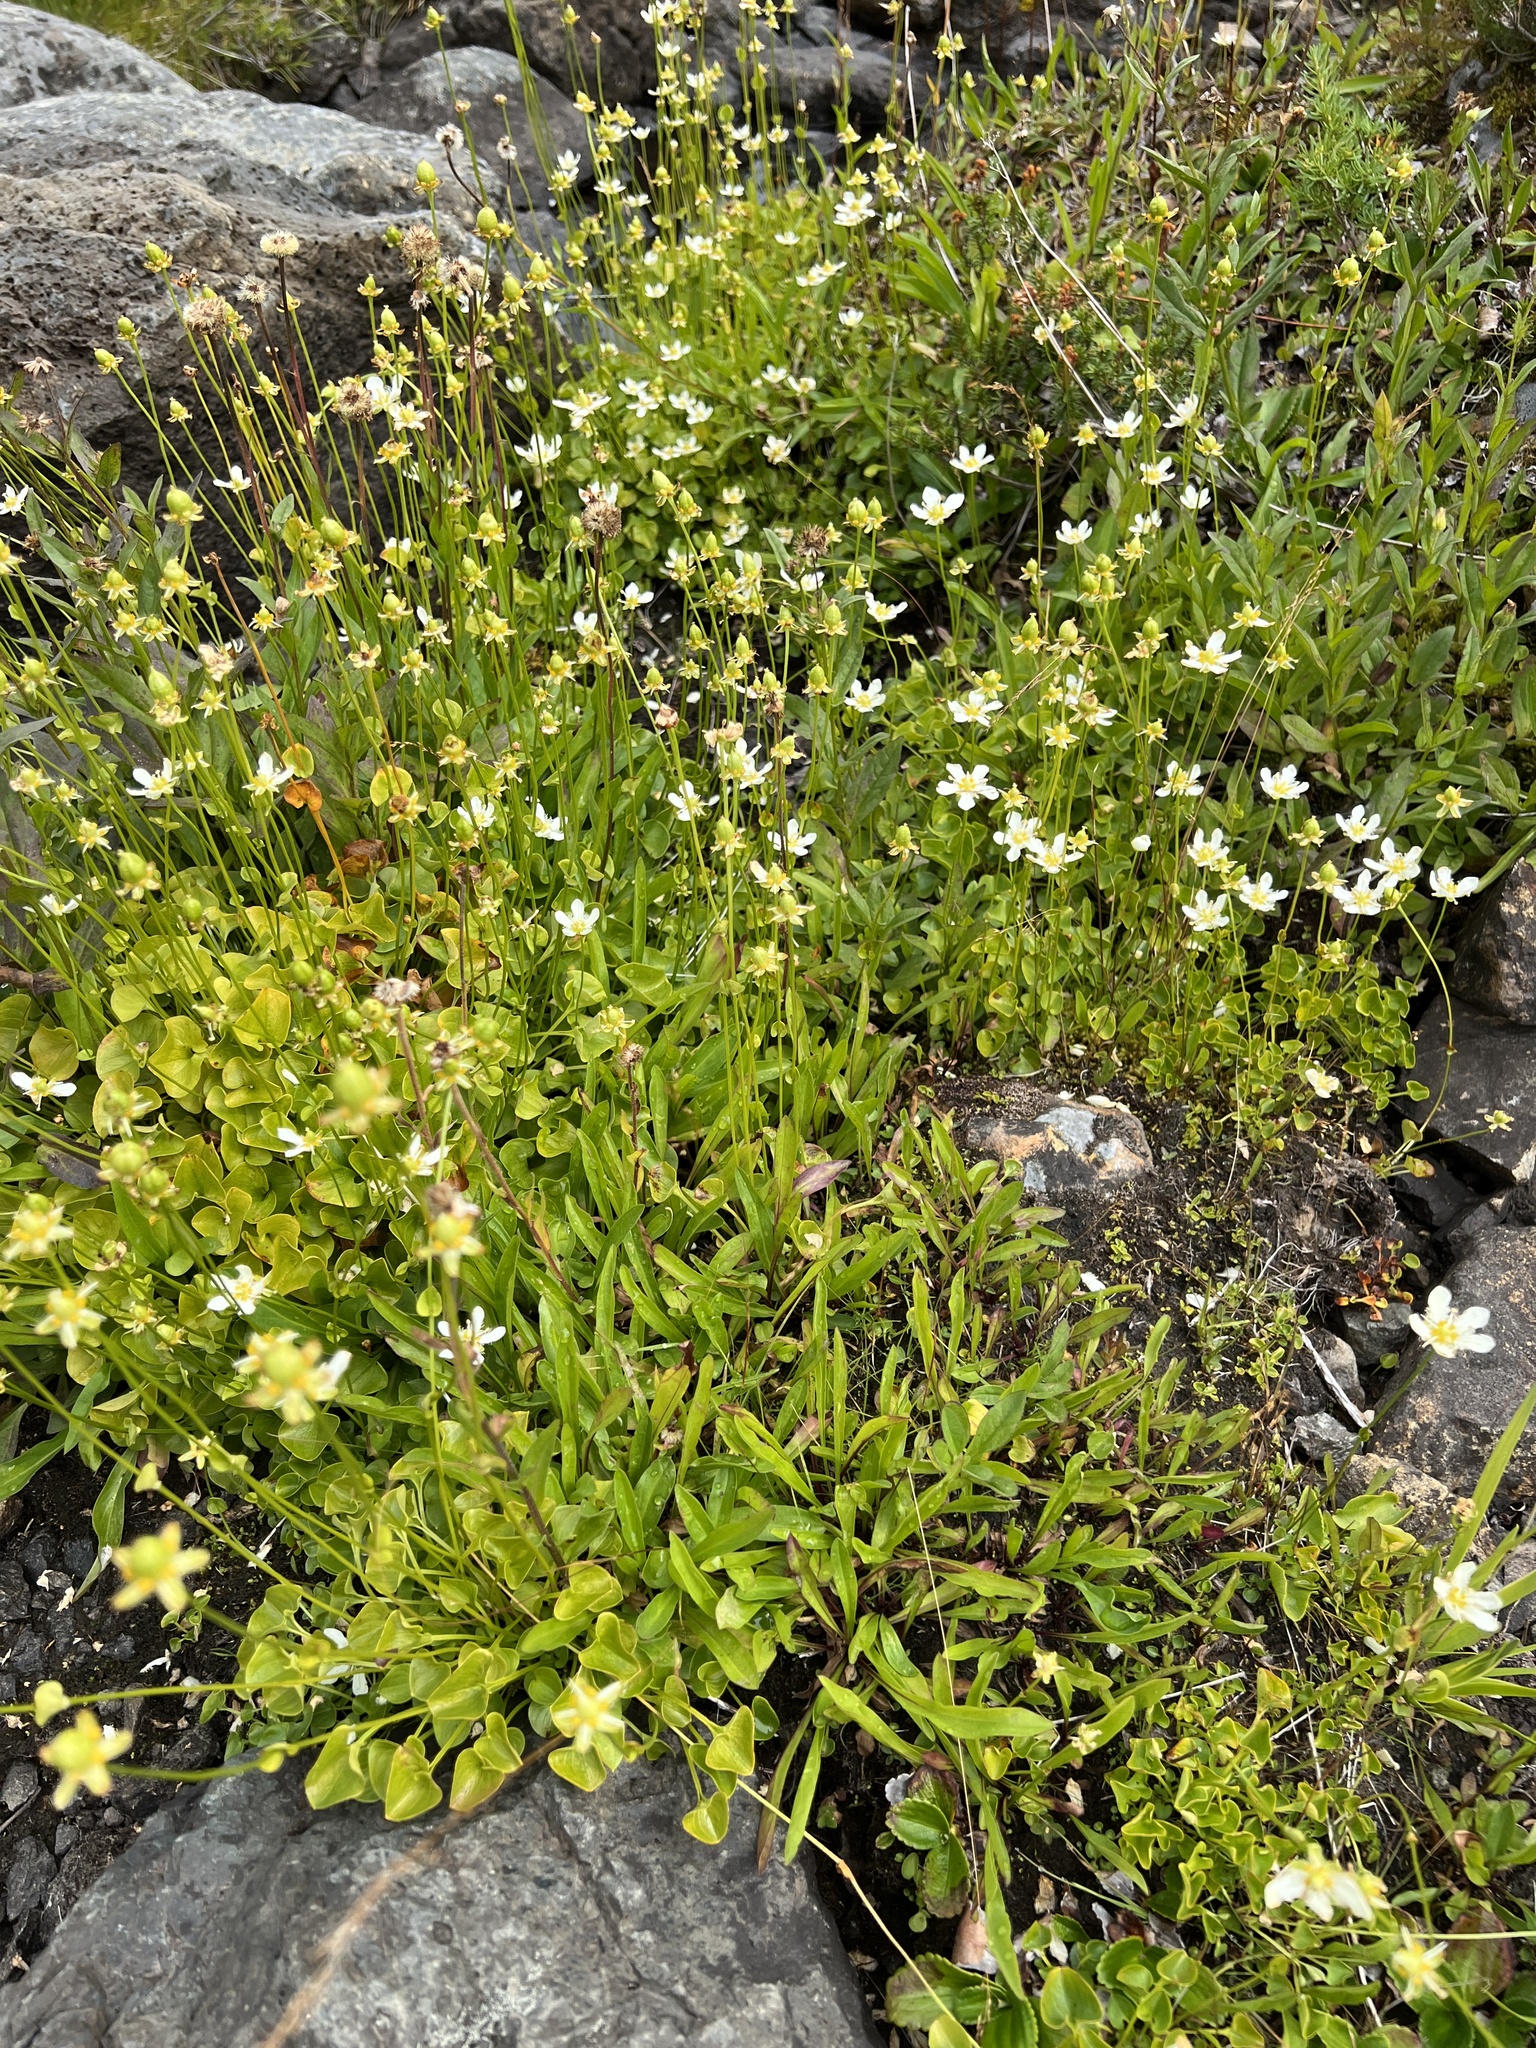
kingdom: Plantae
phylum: Tracheophyta
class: Magnoliopsida
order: Celastrales
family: Parnassiaceae
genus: Parnassia
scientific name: Parnassia fimbriata
